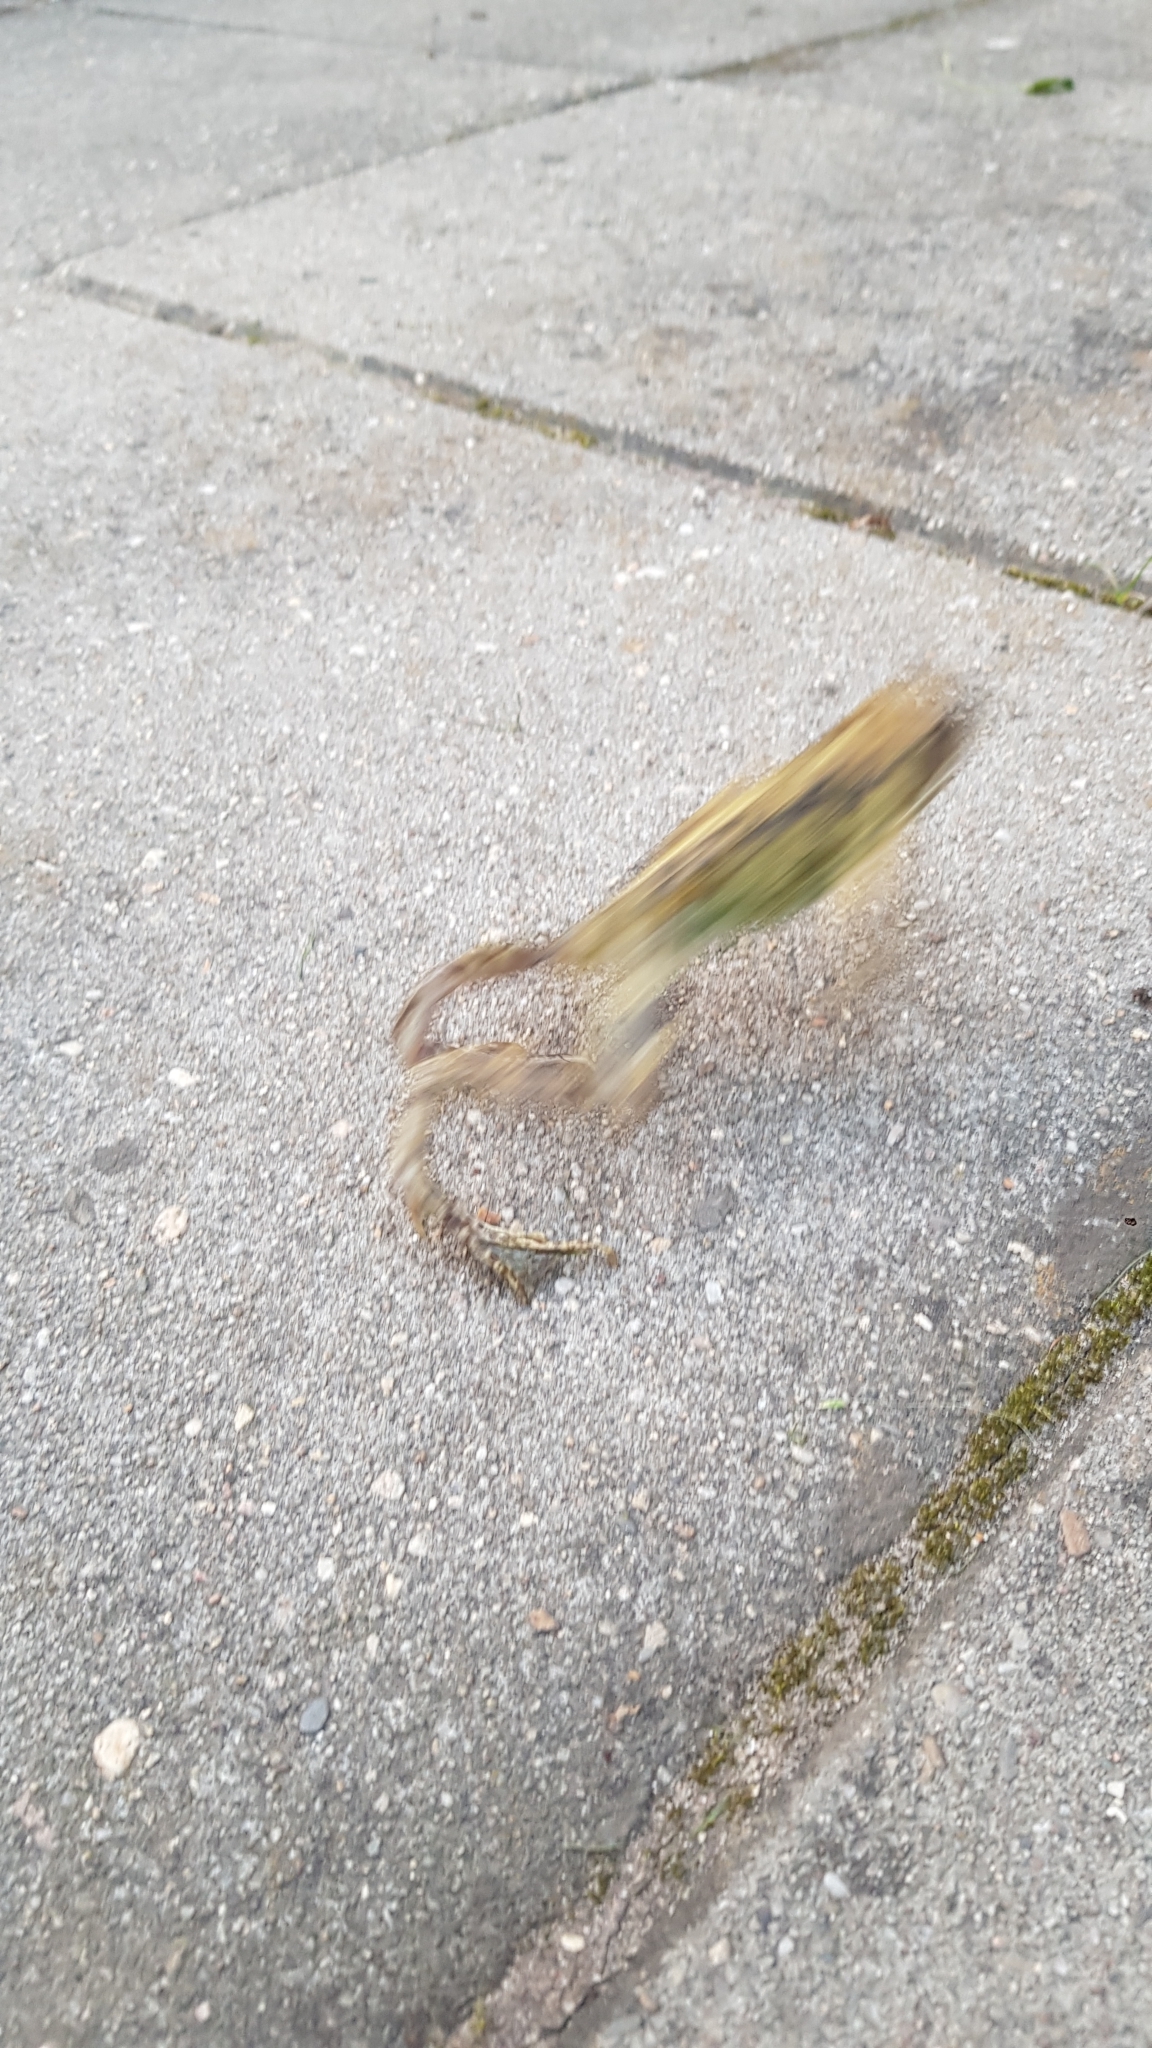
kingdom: Animalia
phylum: Chordata
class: Amphibia
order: Anura
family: Ranidae
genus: Rana
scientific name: Rana temporaria
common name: Common frog
